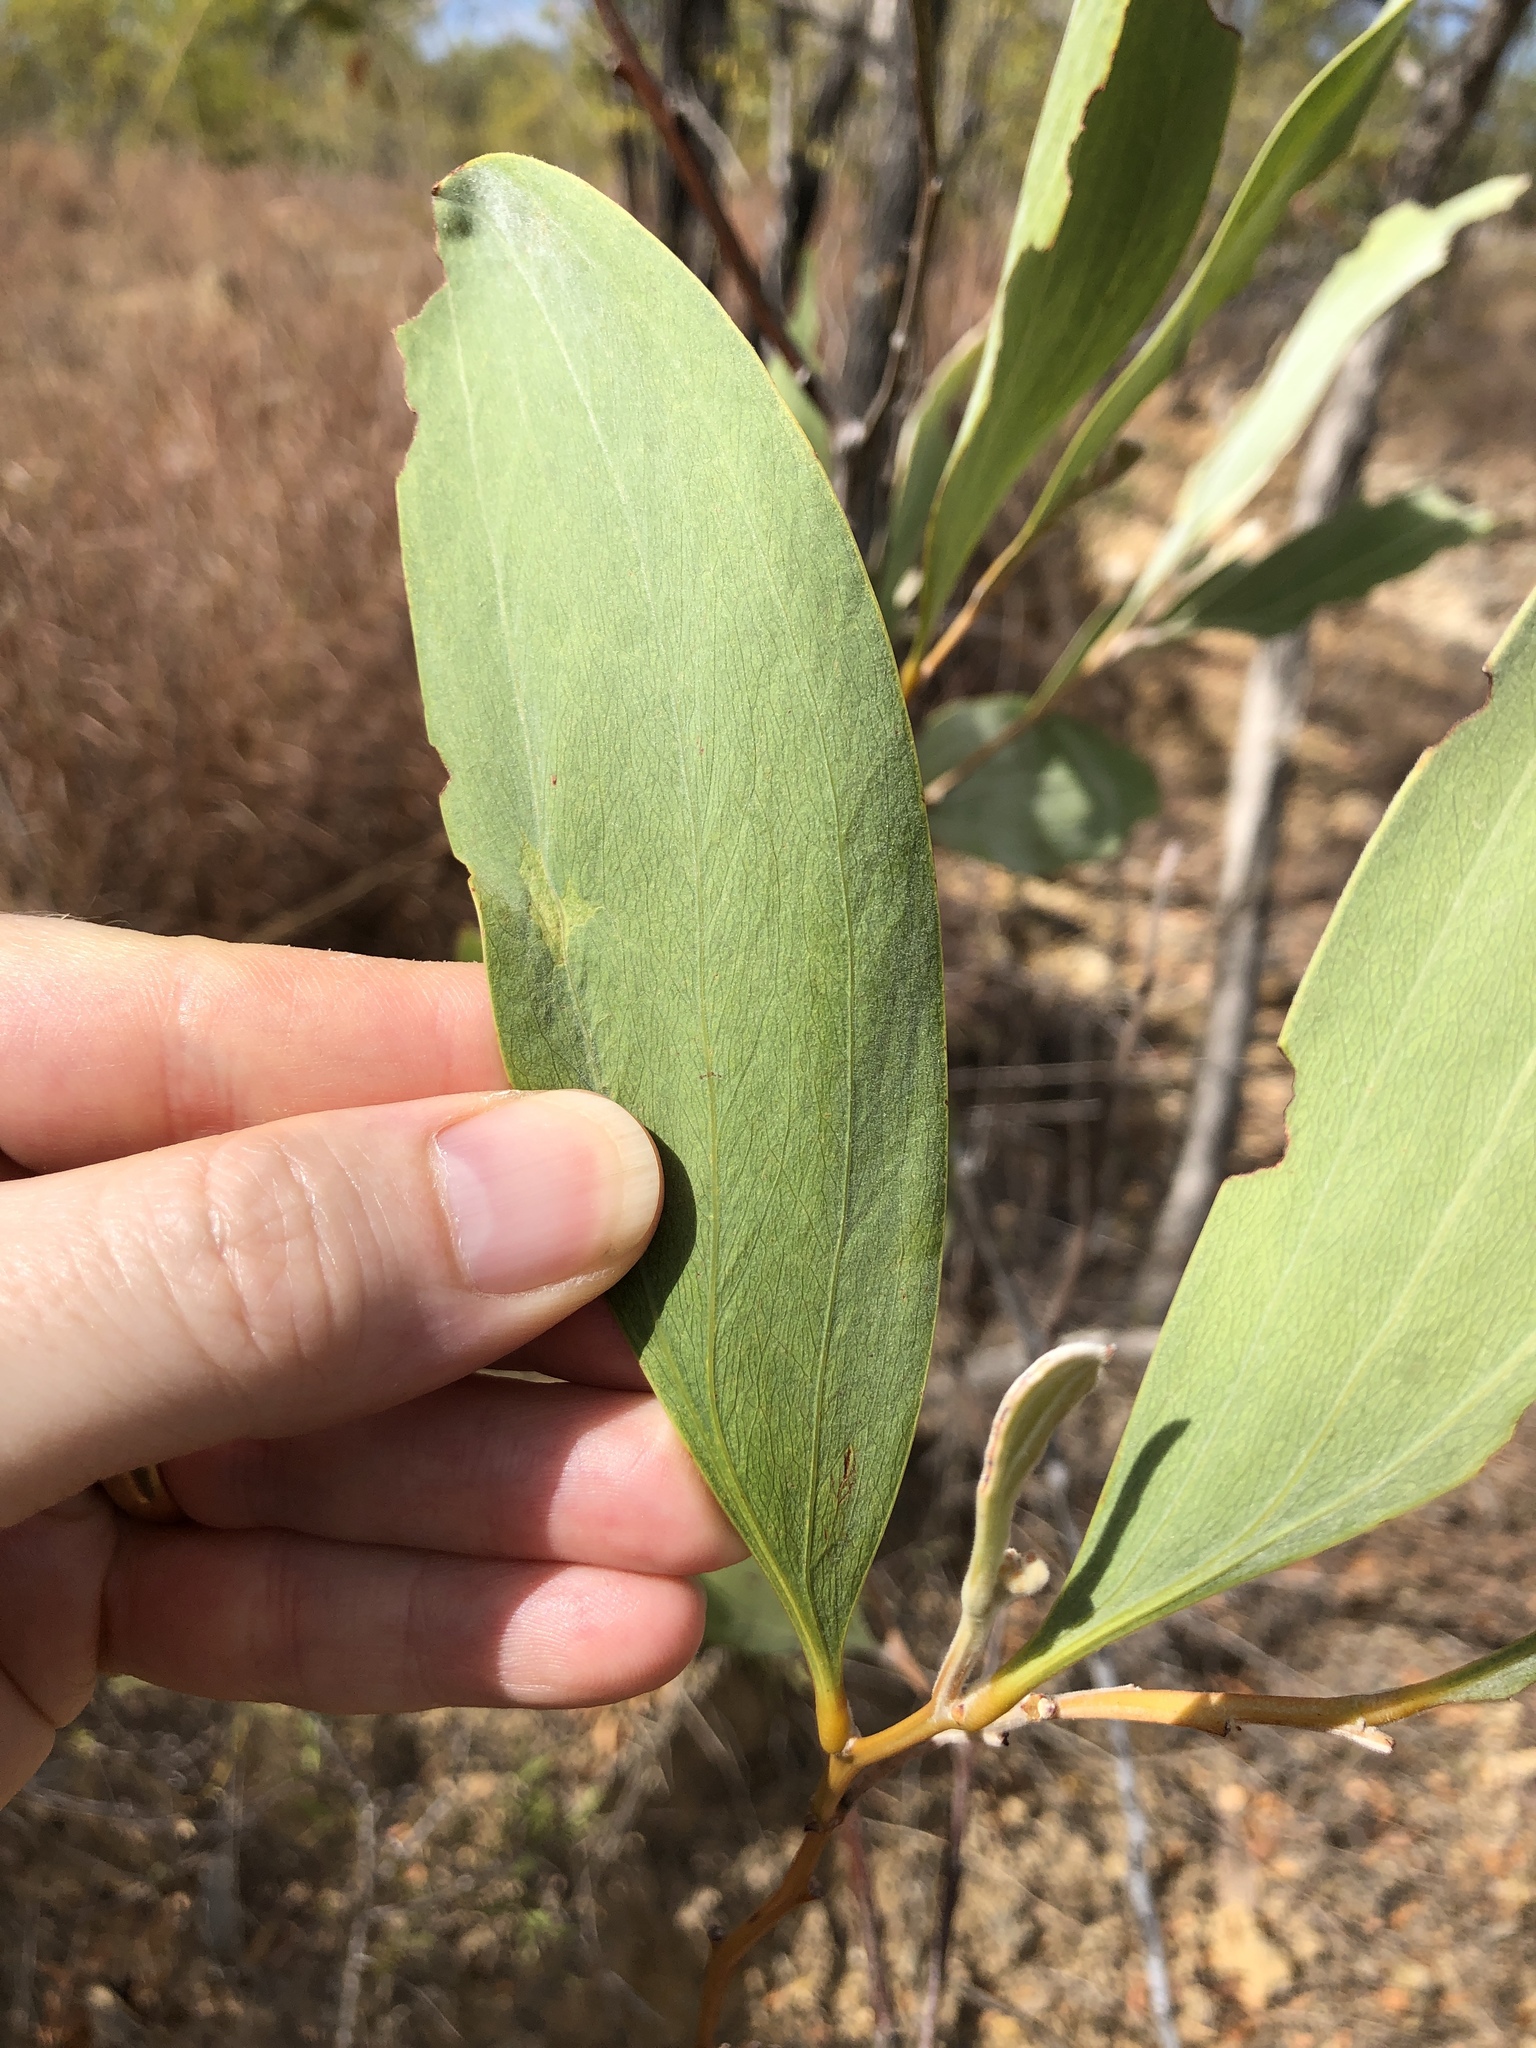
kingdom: Plantae
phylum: Tracheophyta
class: Magnoliopsida
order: Fabales
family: Fabaceae
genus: Acacia
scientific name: Acacia holosericea
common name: Candelabra wattle
